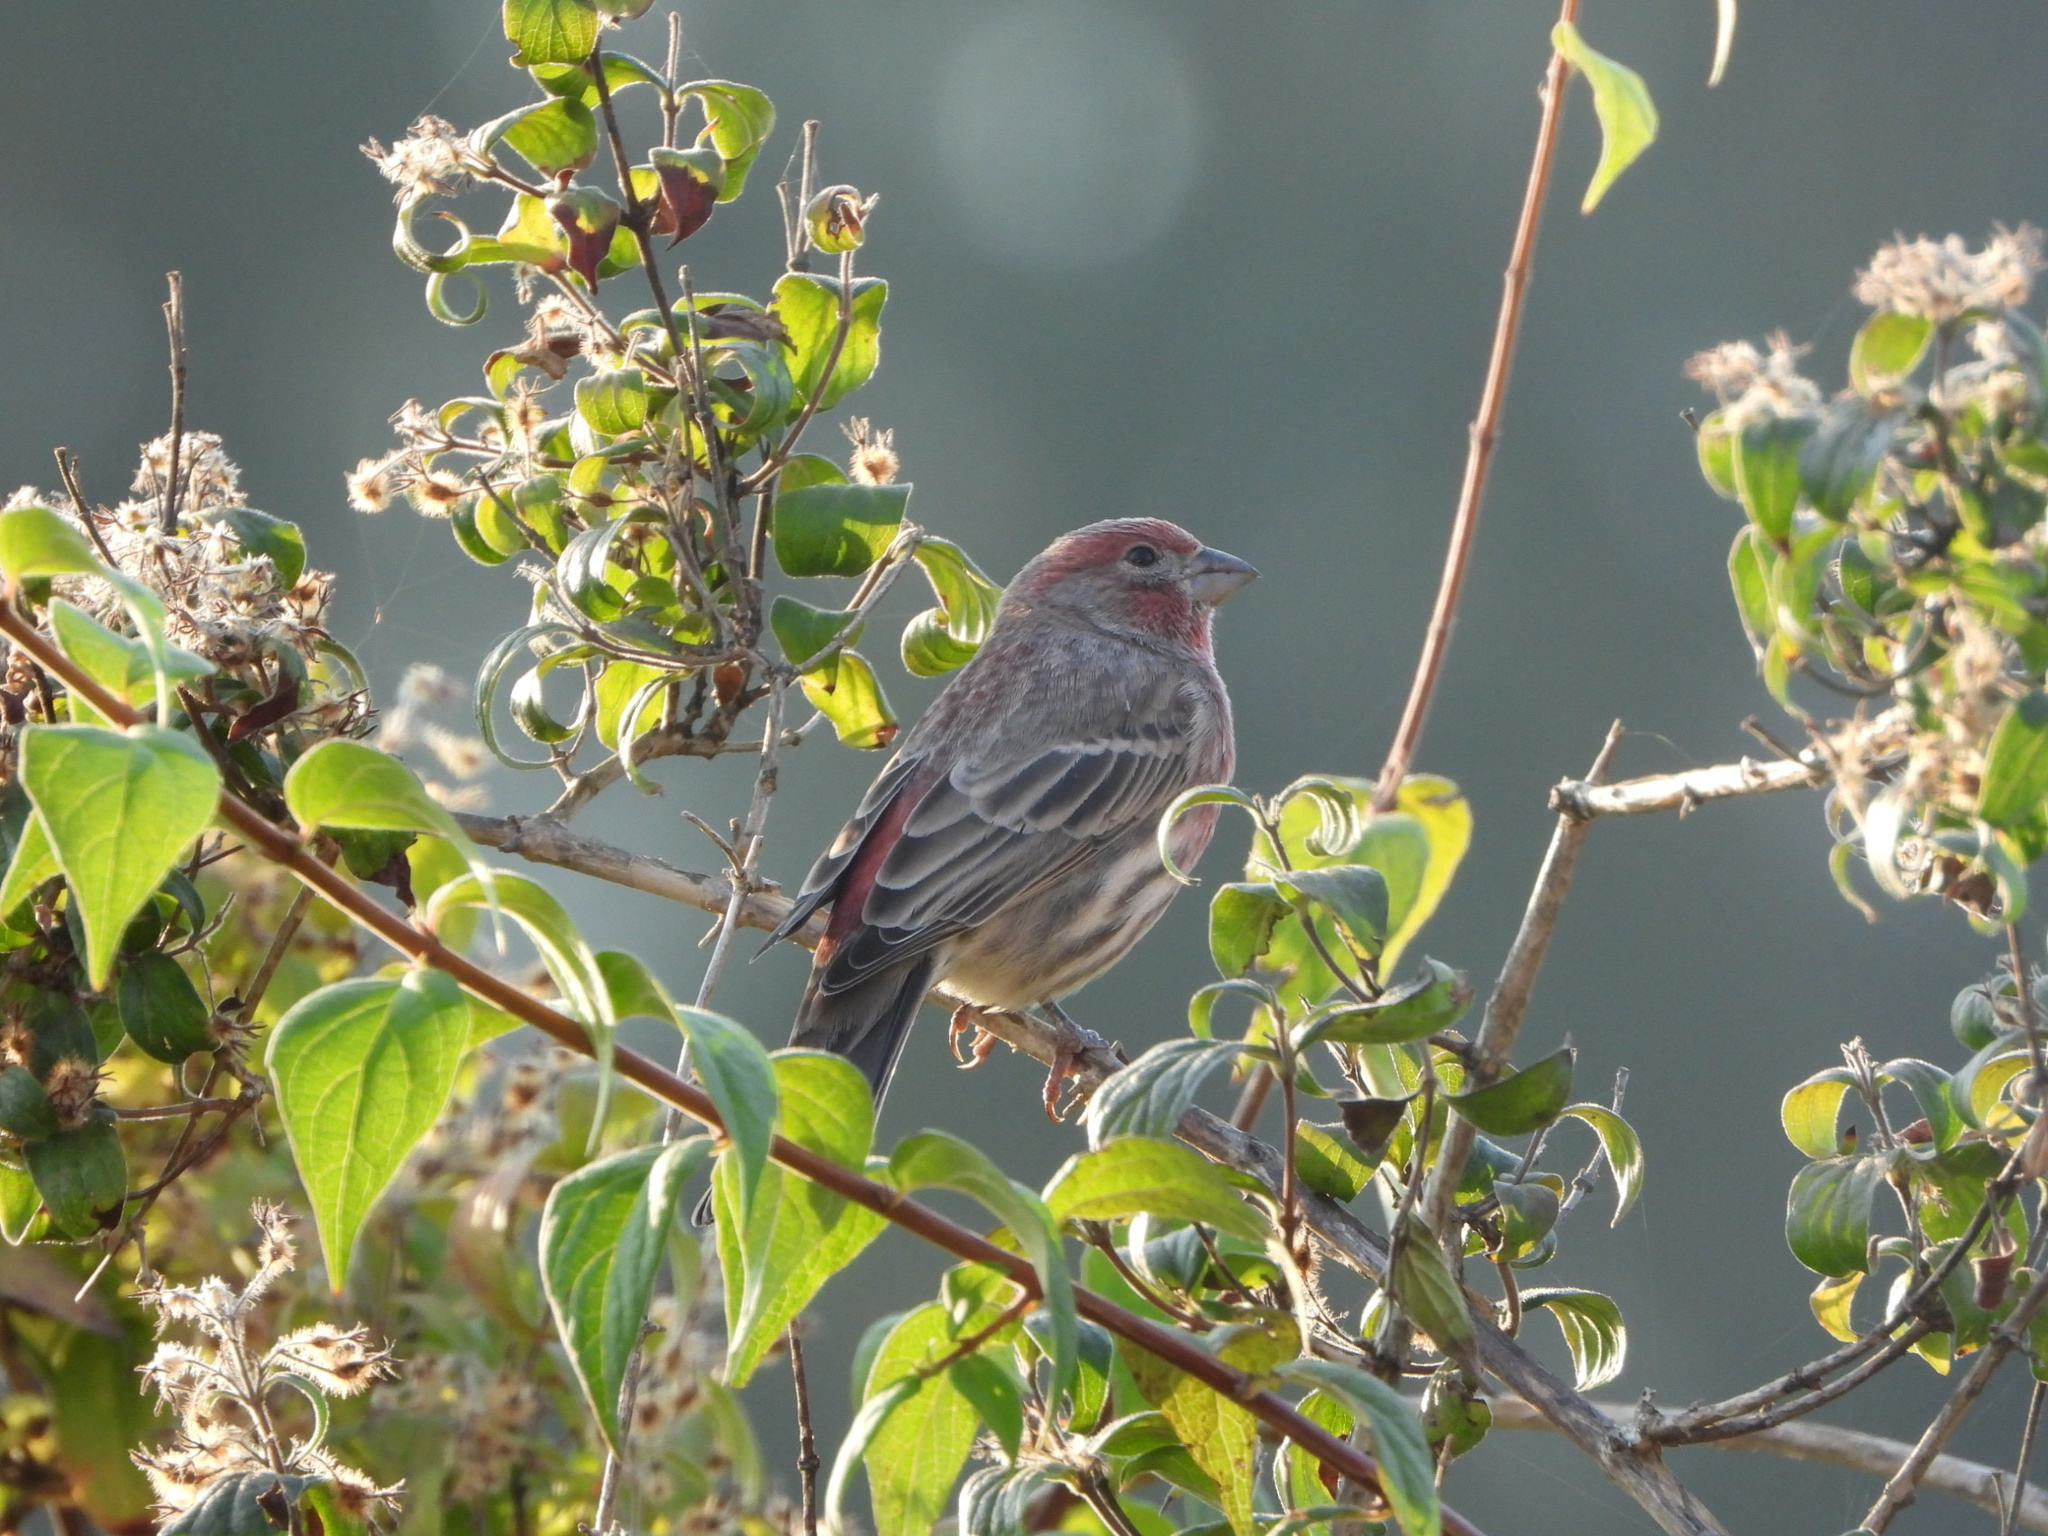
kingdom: Animalia
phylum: Chordata
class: Aves
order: Passeriformes
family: Fringillidae
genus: Haemorhous
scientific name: Haemorhous mexicanus
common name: House finch
